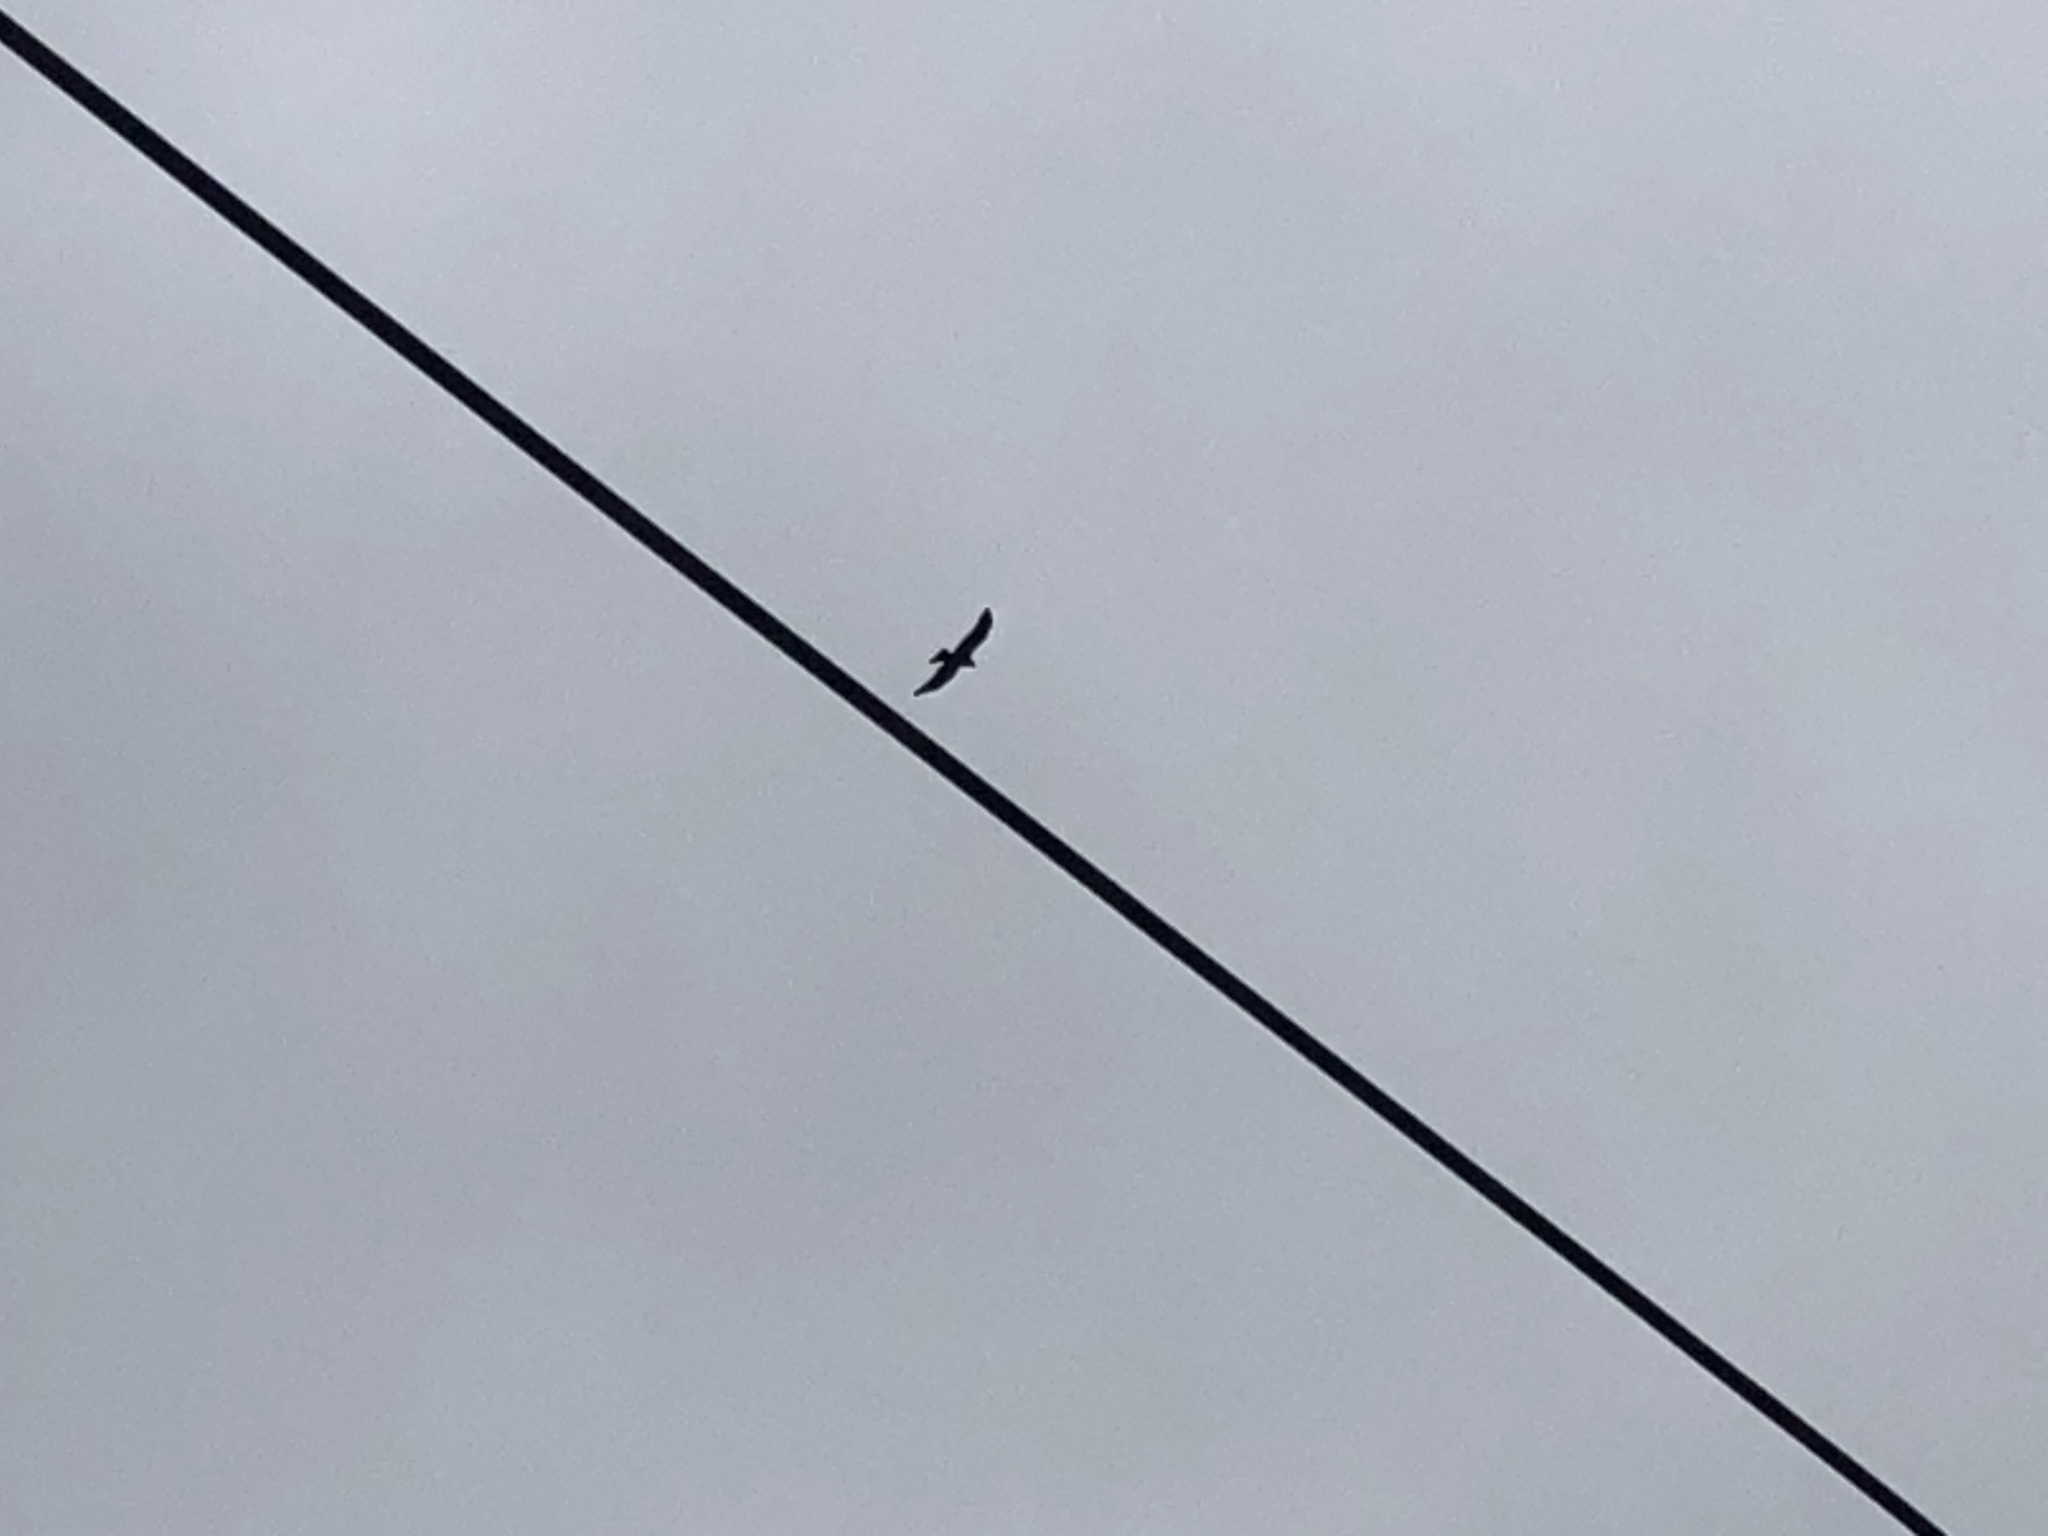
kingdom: Animalia
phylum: Chordata
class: Aves
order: Accipitriformes
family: Accipitridae
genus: Milvus
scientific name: Milvus migrans
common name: Black kite
